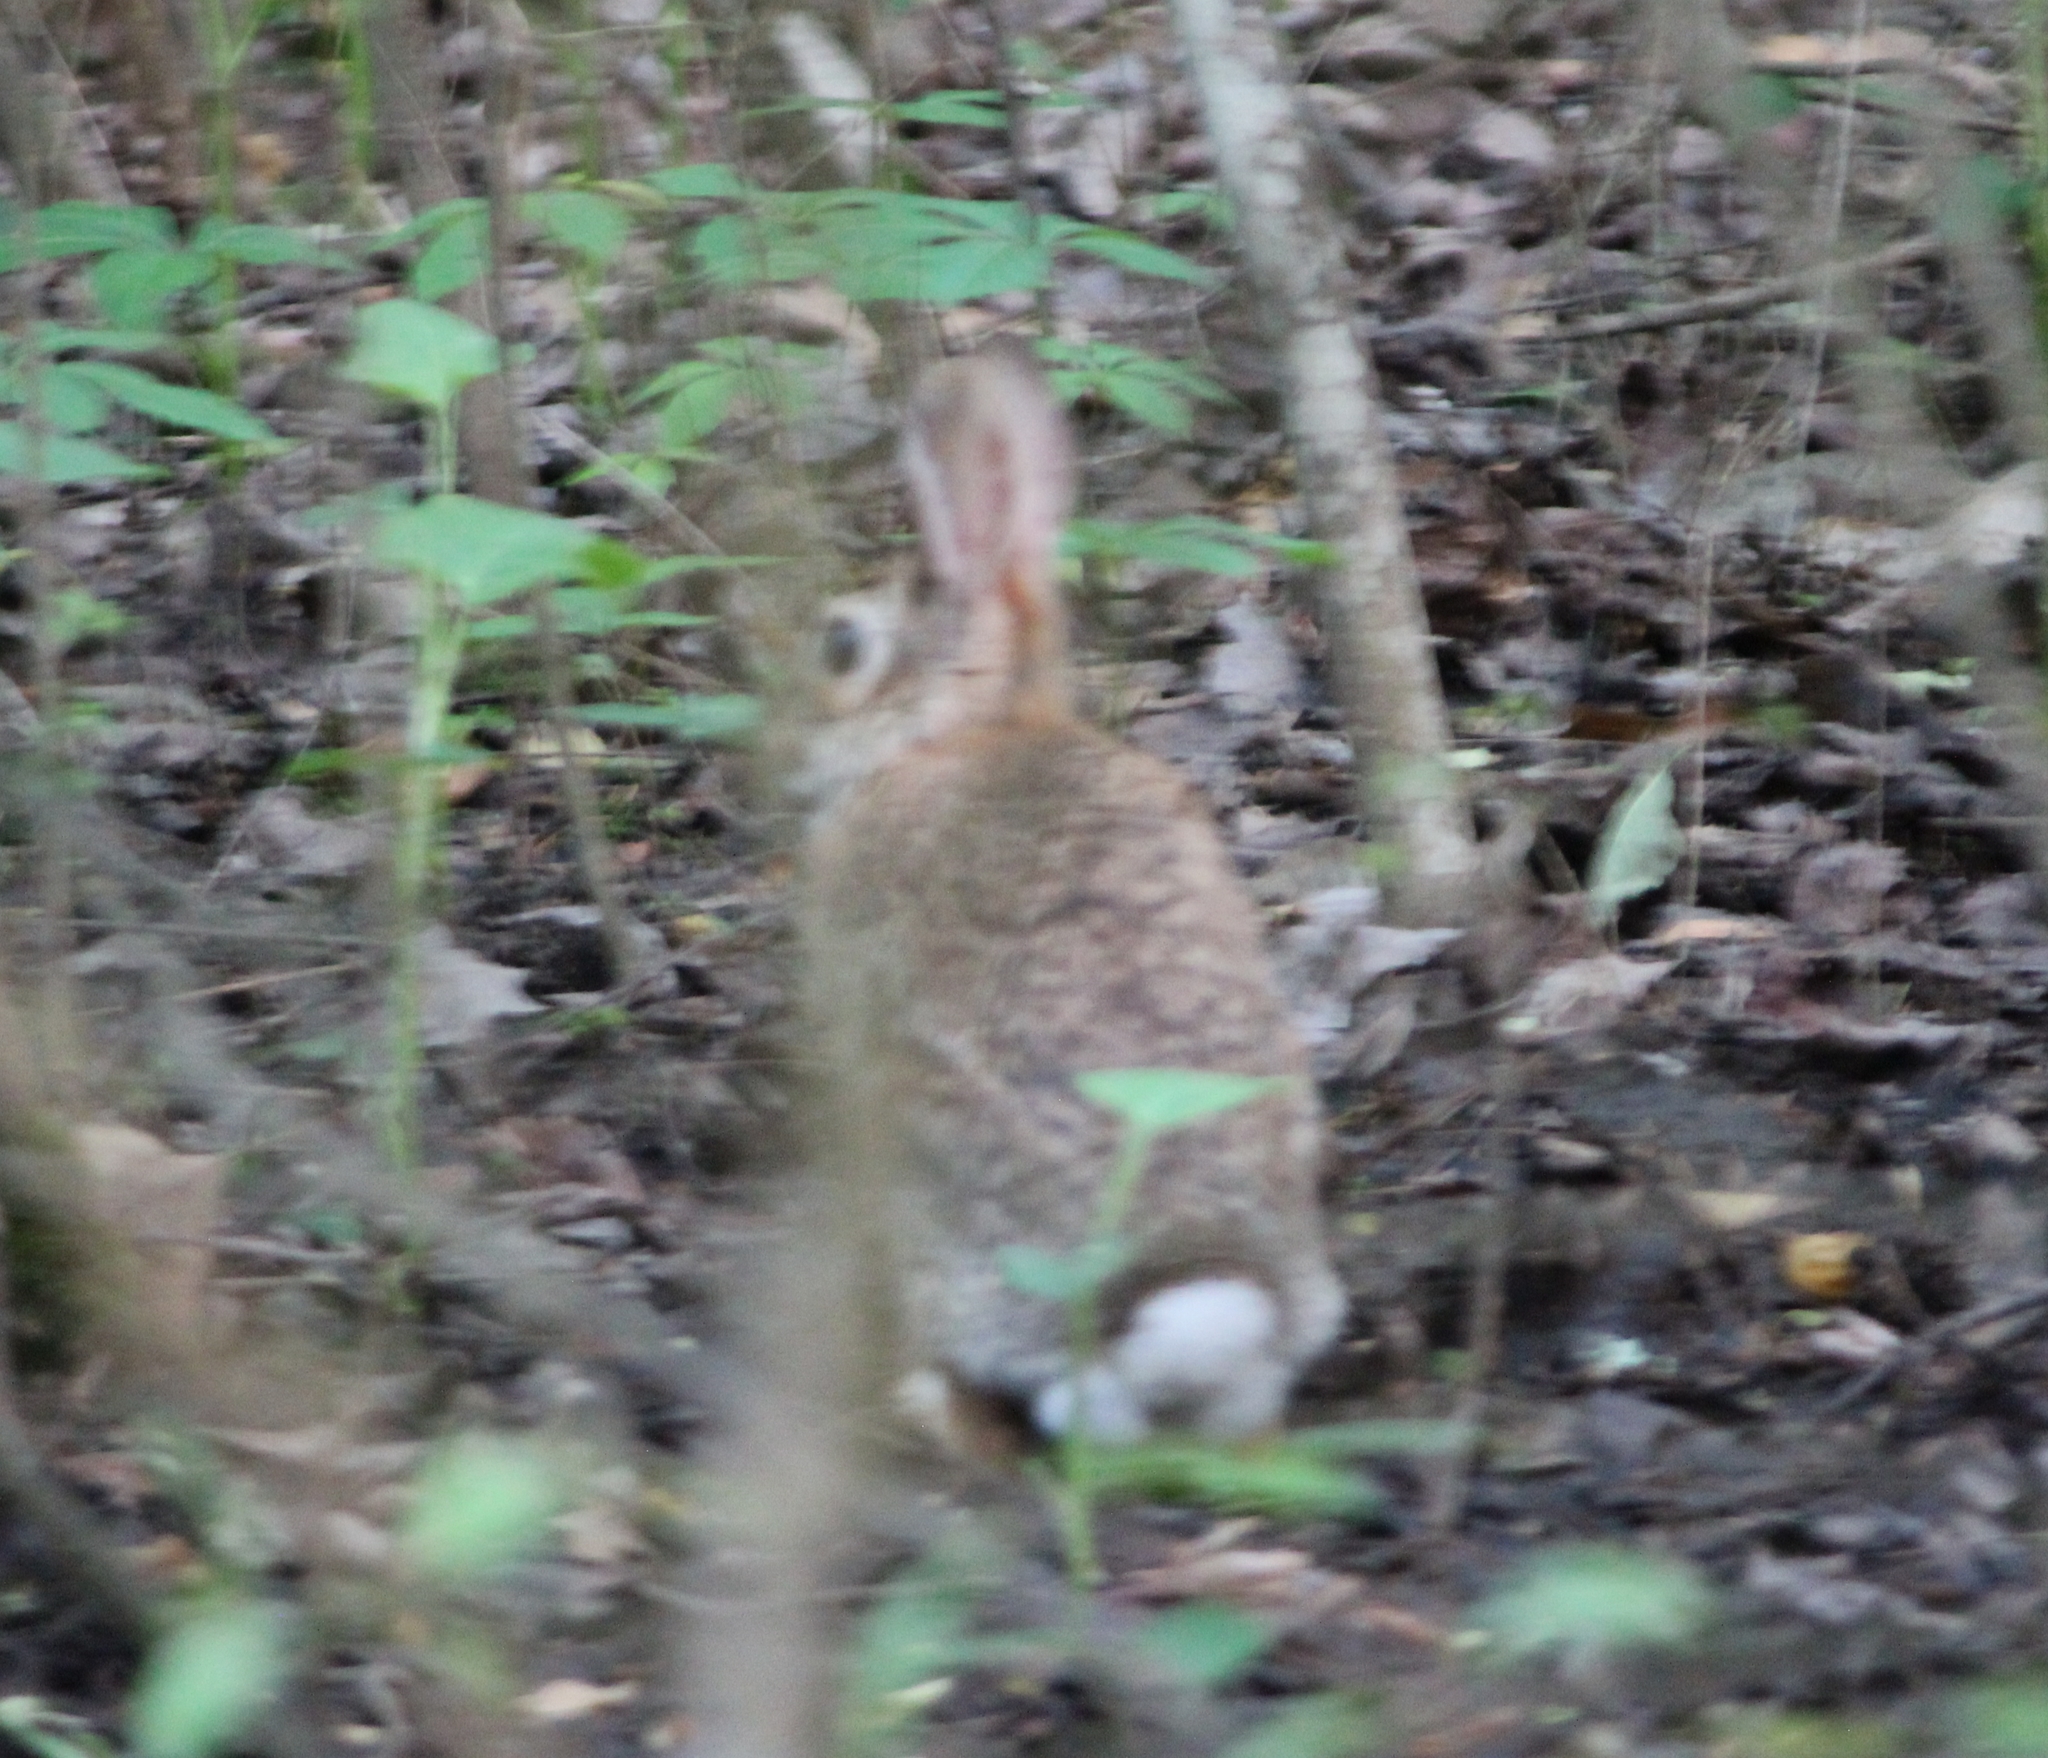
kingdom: Animalia
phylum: Chordata
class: Mammalia
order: Lagomorpha
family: Leporidae
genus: Sylvilagus
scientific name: Sylvilagus floridanus
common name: Eastern cottontail
